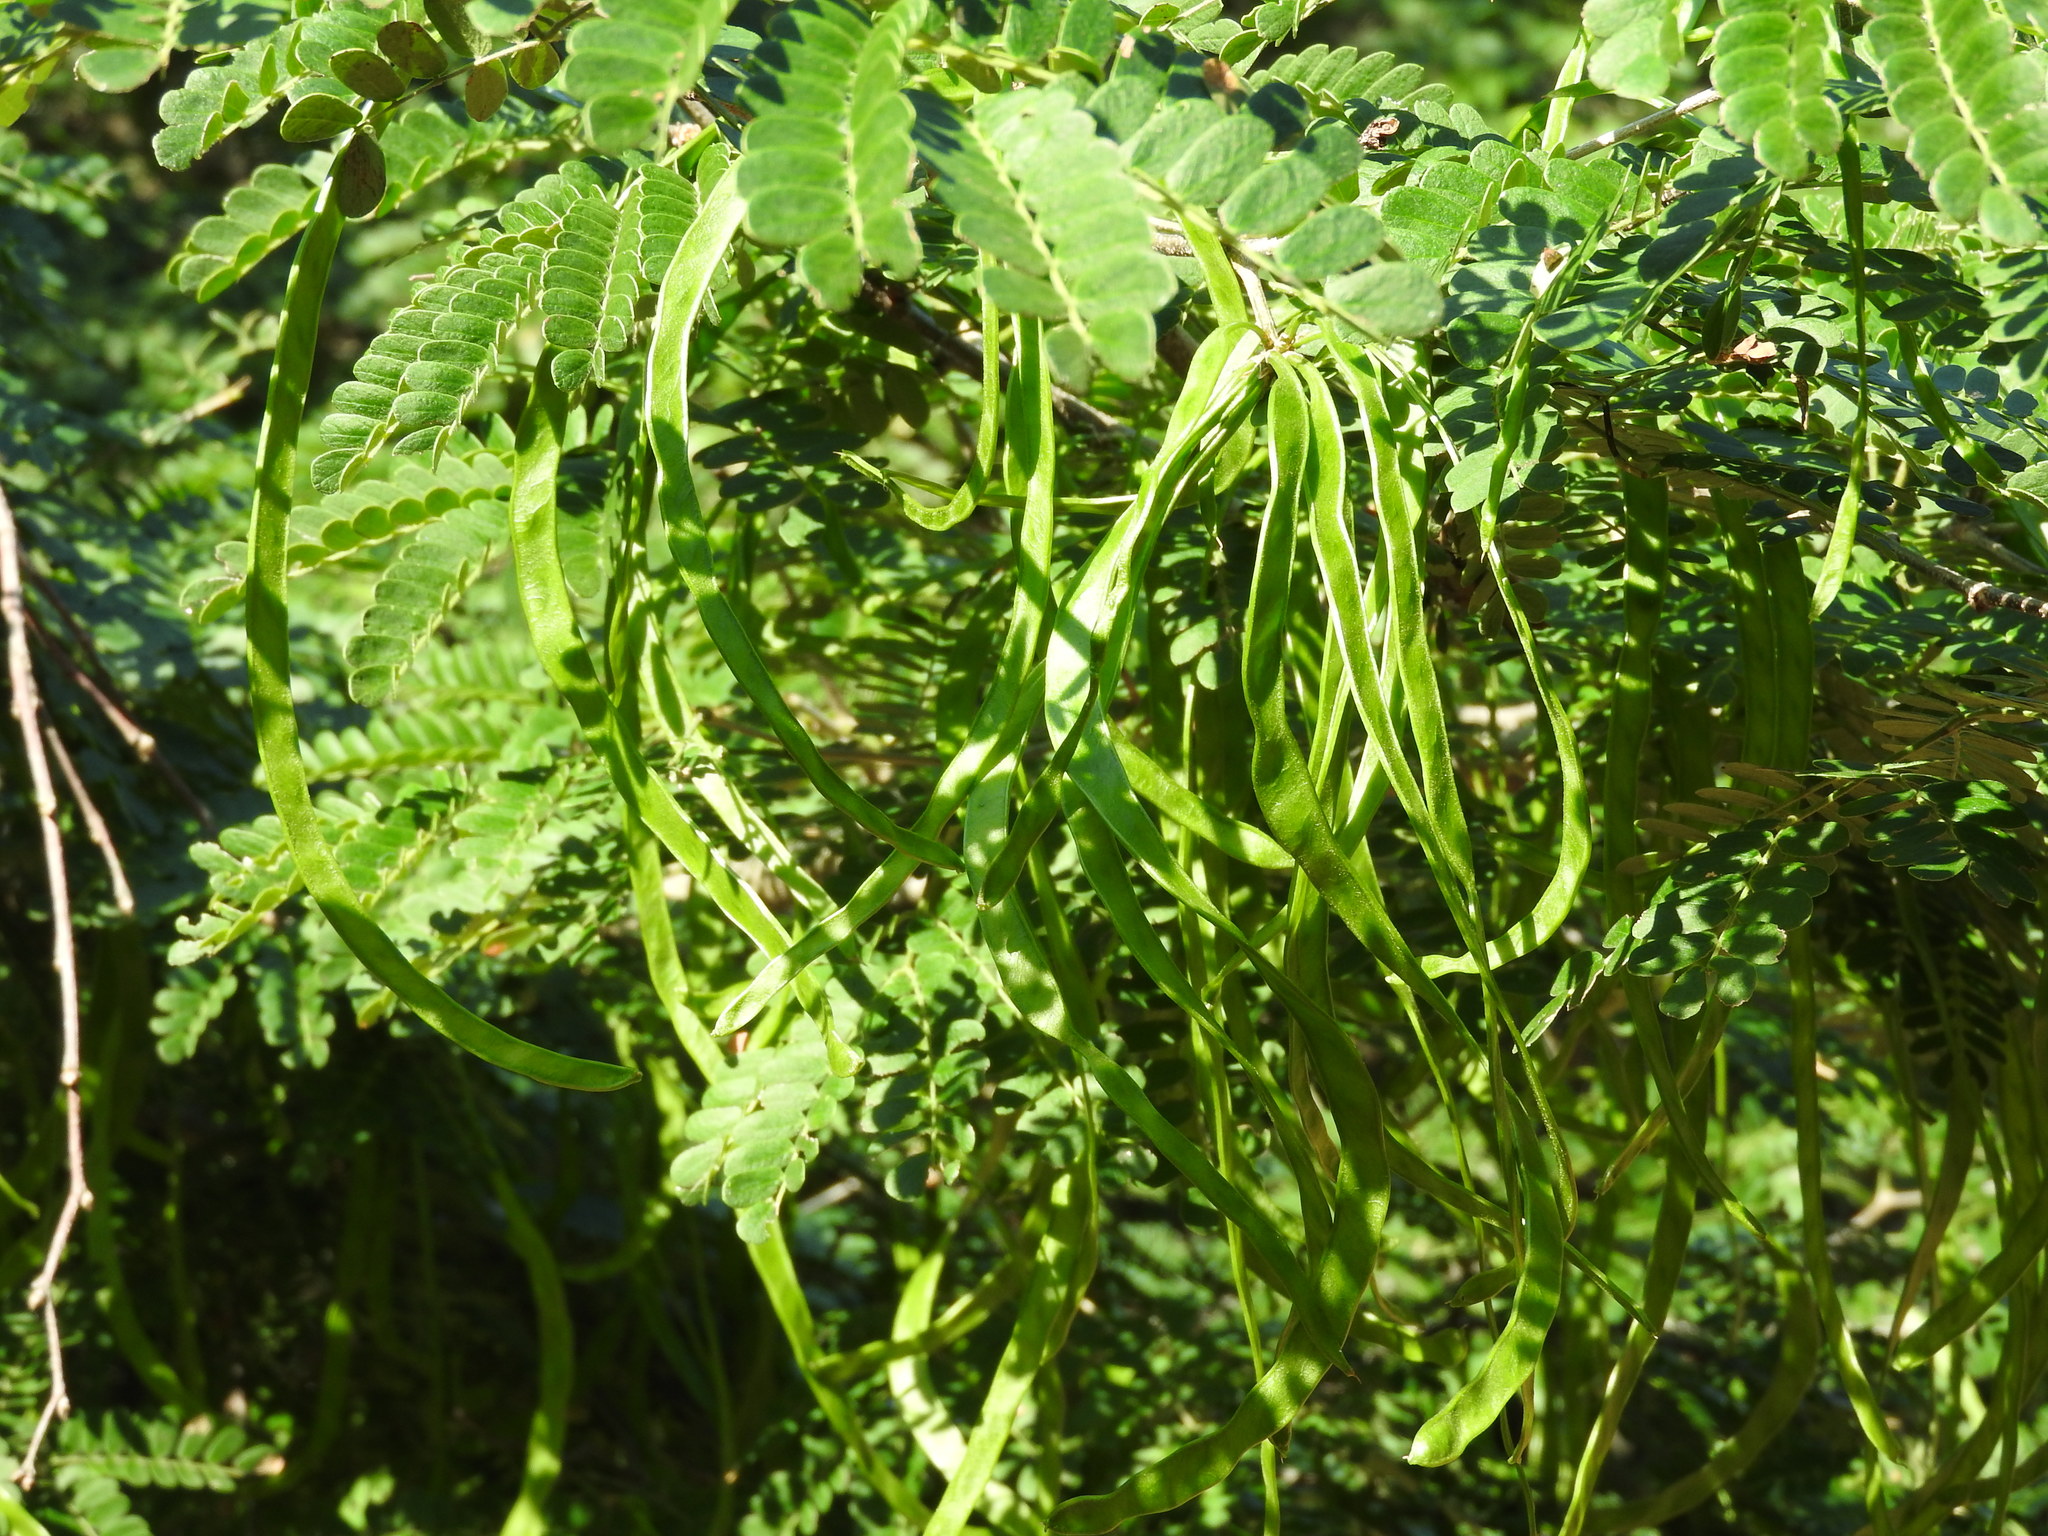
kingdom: Plantae
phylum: Tracheophyta
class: Magnoliopsida
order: Fabales
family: Fabaceae
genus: Chloroleucon
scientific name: Chloroleucon mangense
